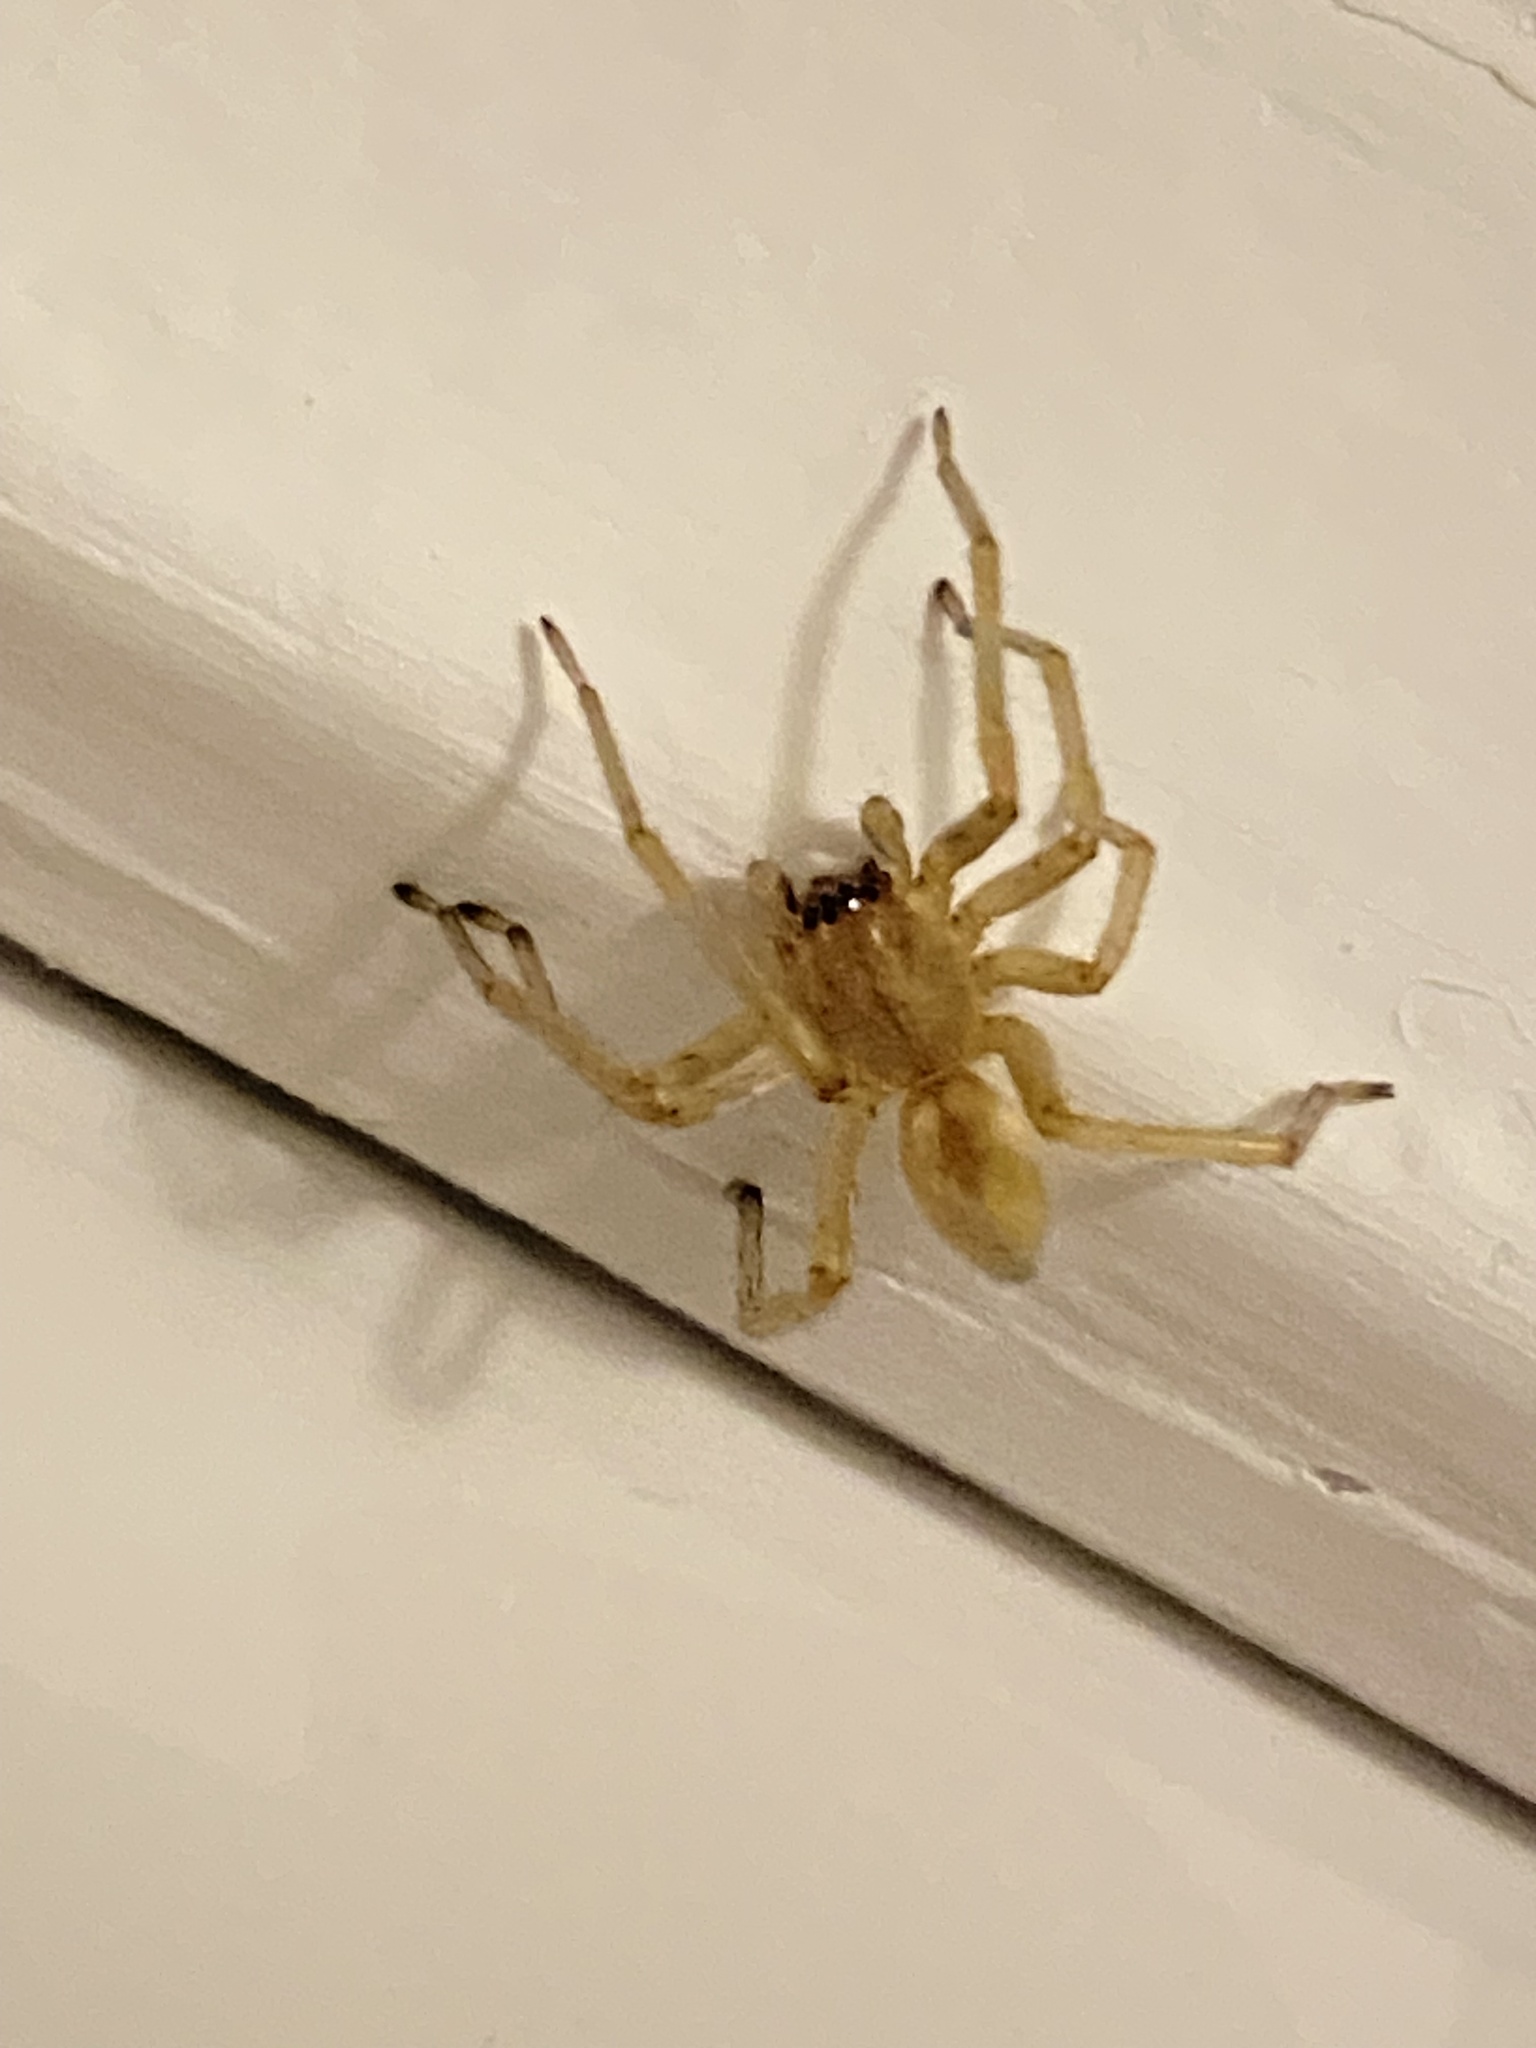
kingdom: Animalia
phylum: Arthropoda
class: Arachnida
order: Araneae
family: Cheiracanthiidae
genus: Cheiracanthium
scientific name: Cheiracanthium mildei
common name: Northern yellow sac spider
